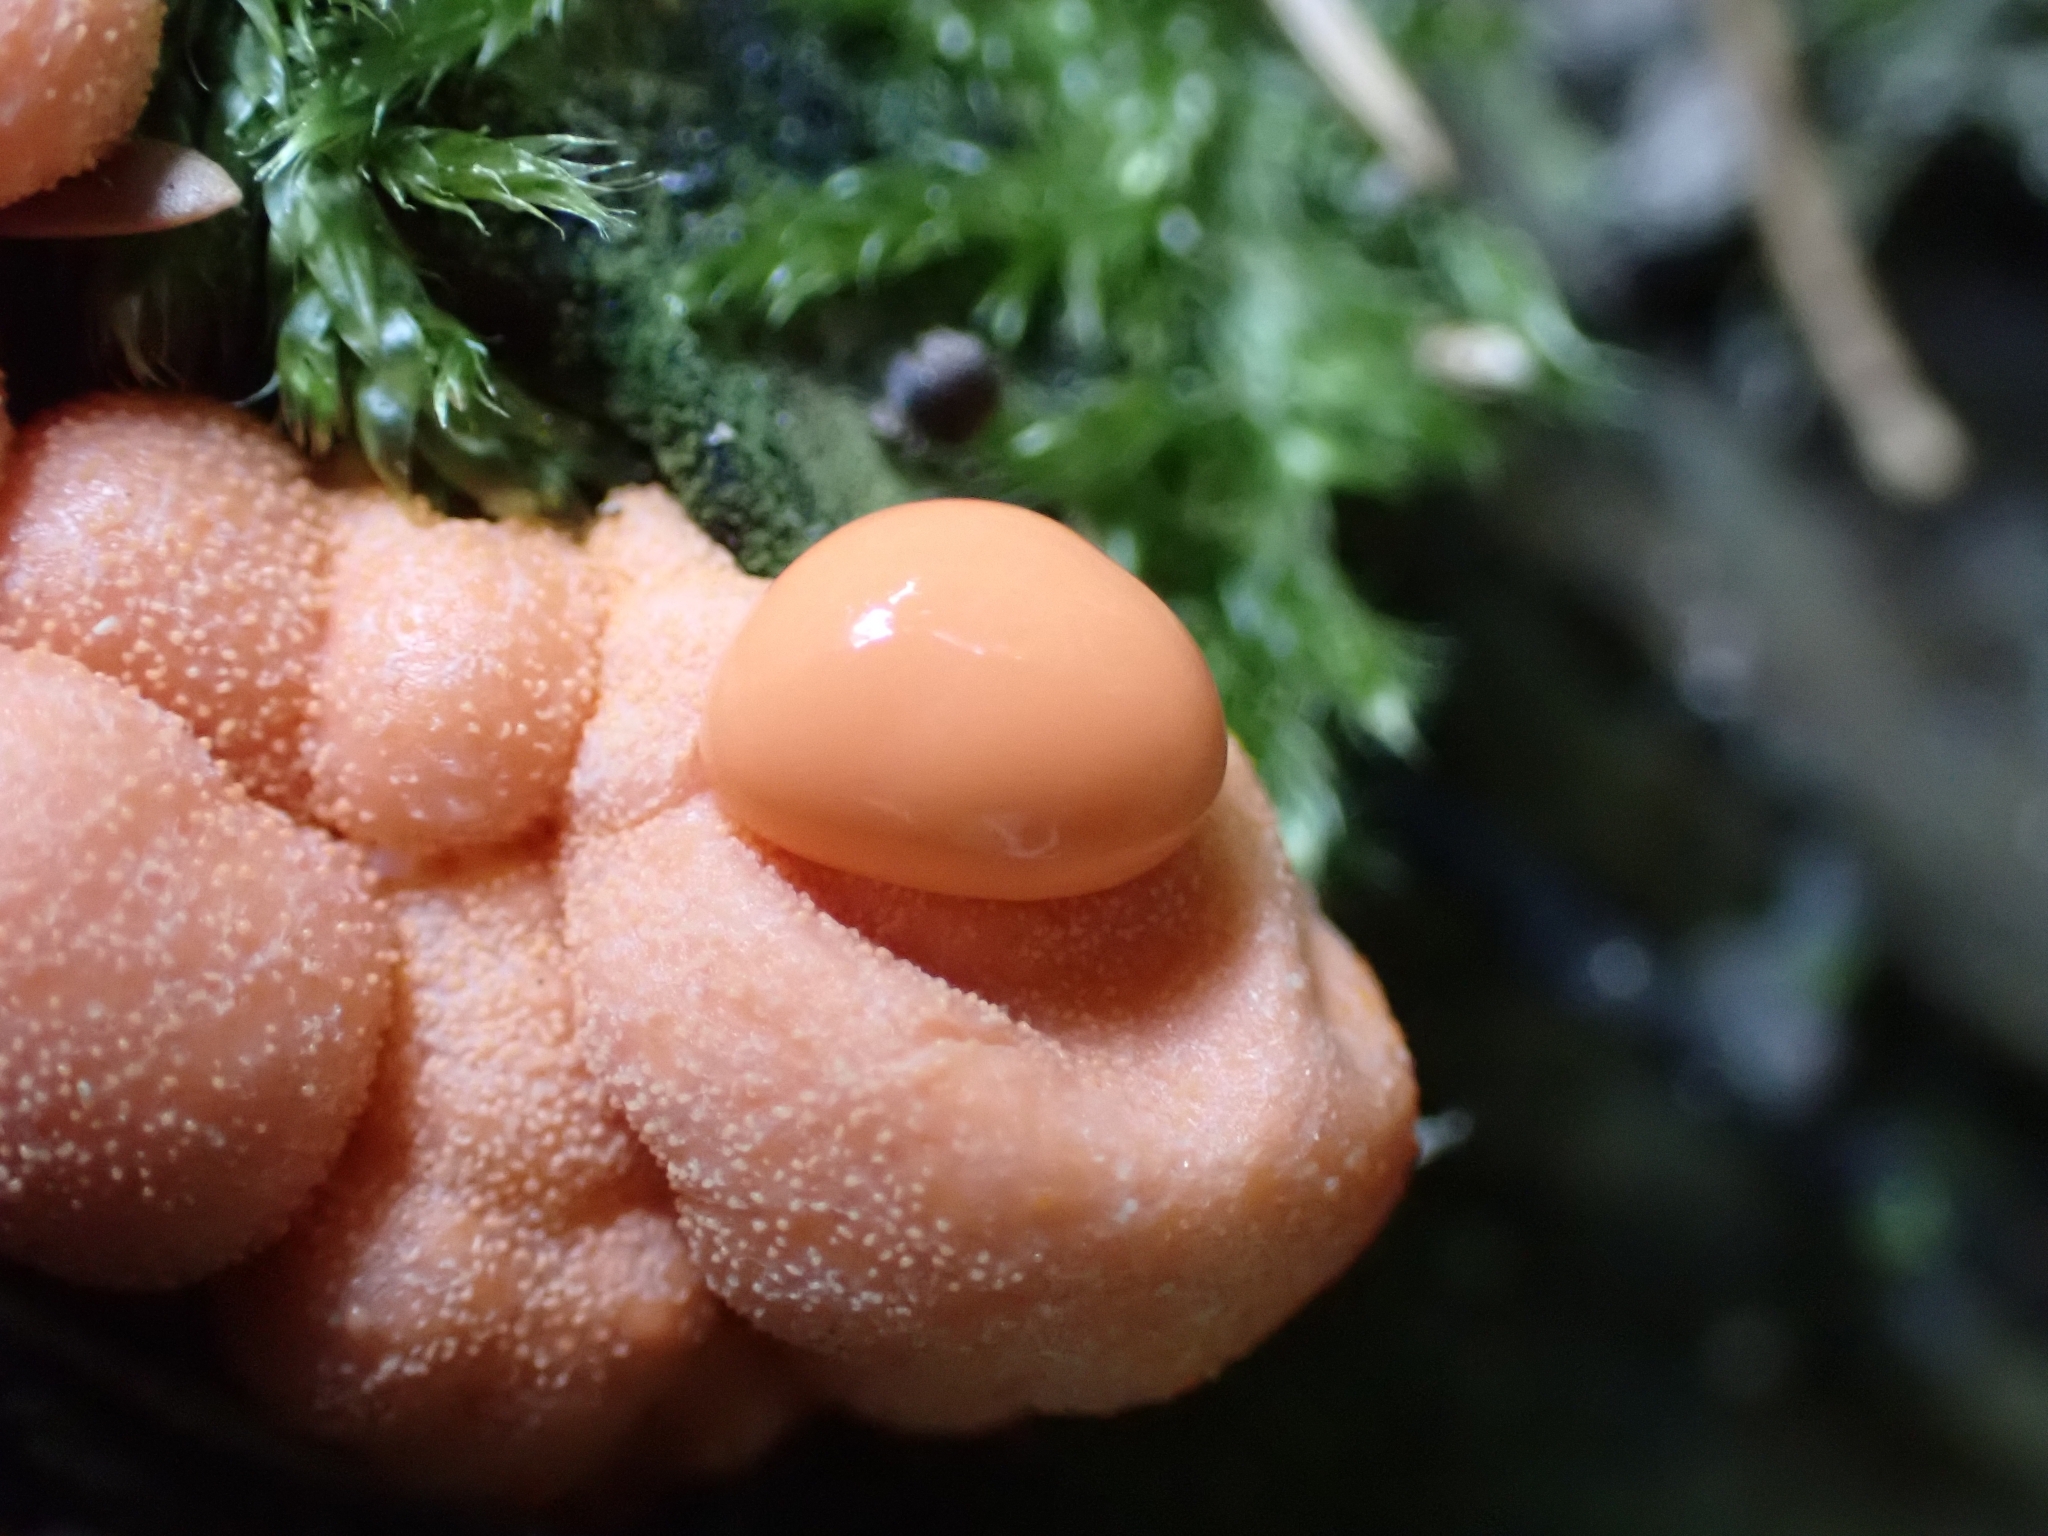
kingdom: Protozoa
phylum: Mycetozoa
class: Myxomycetes
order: Cribrariales
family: Tubiferaceae
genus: Lycogala
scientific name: Lycogala epidendrum
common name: Wolf's milk
